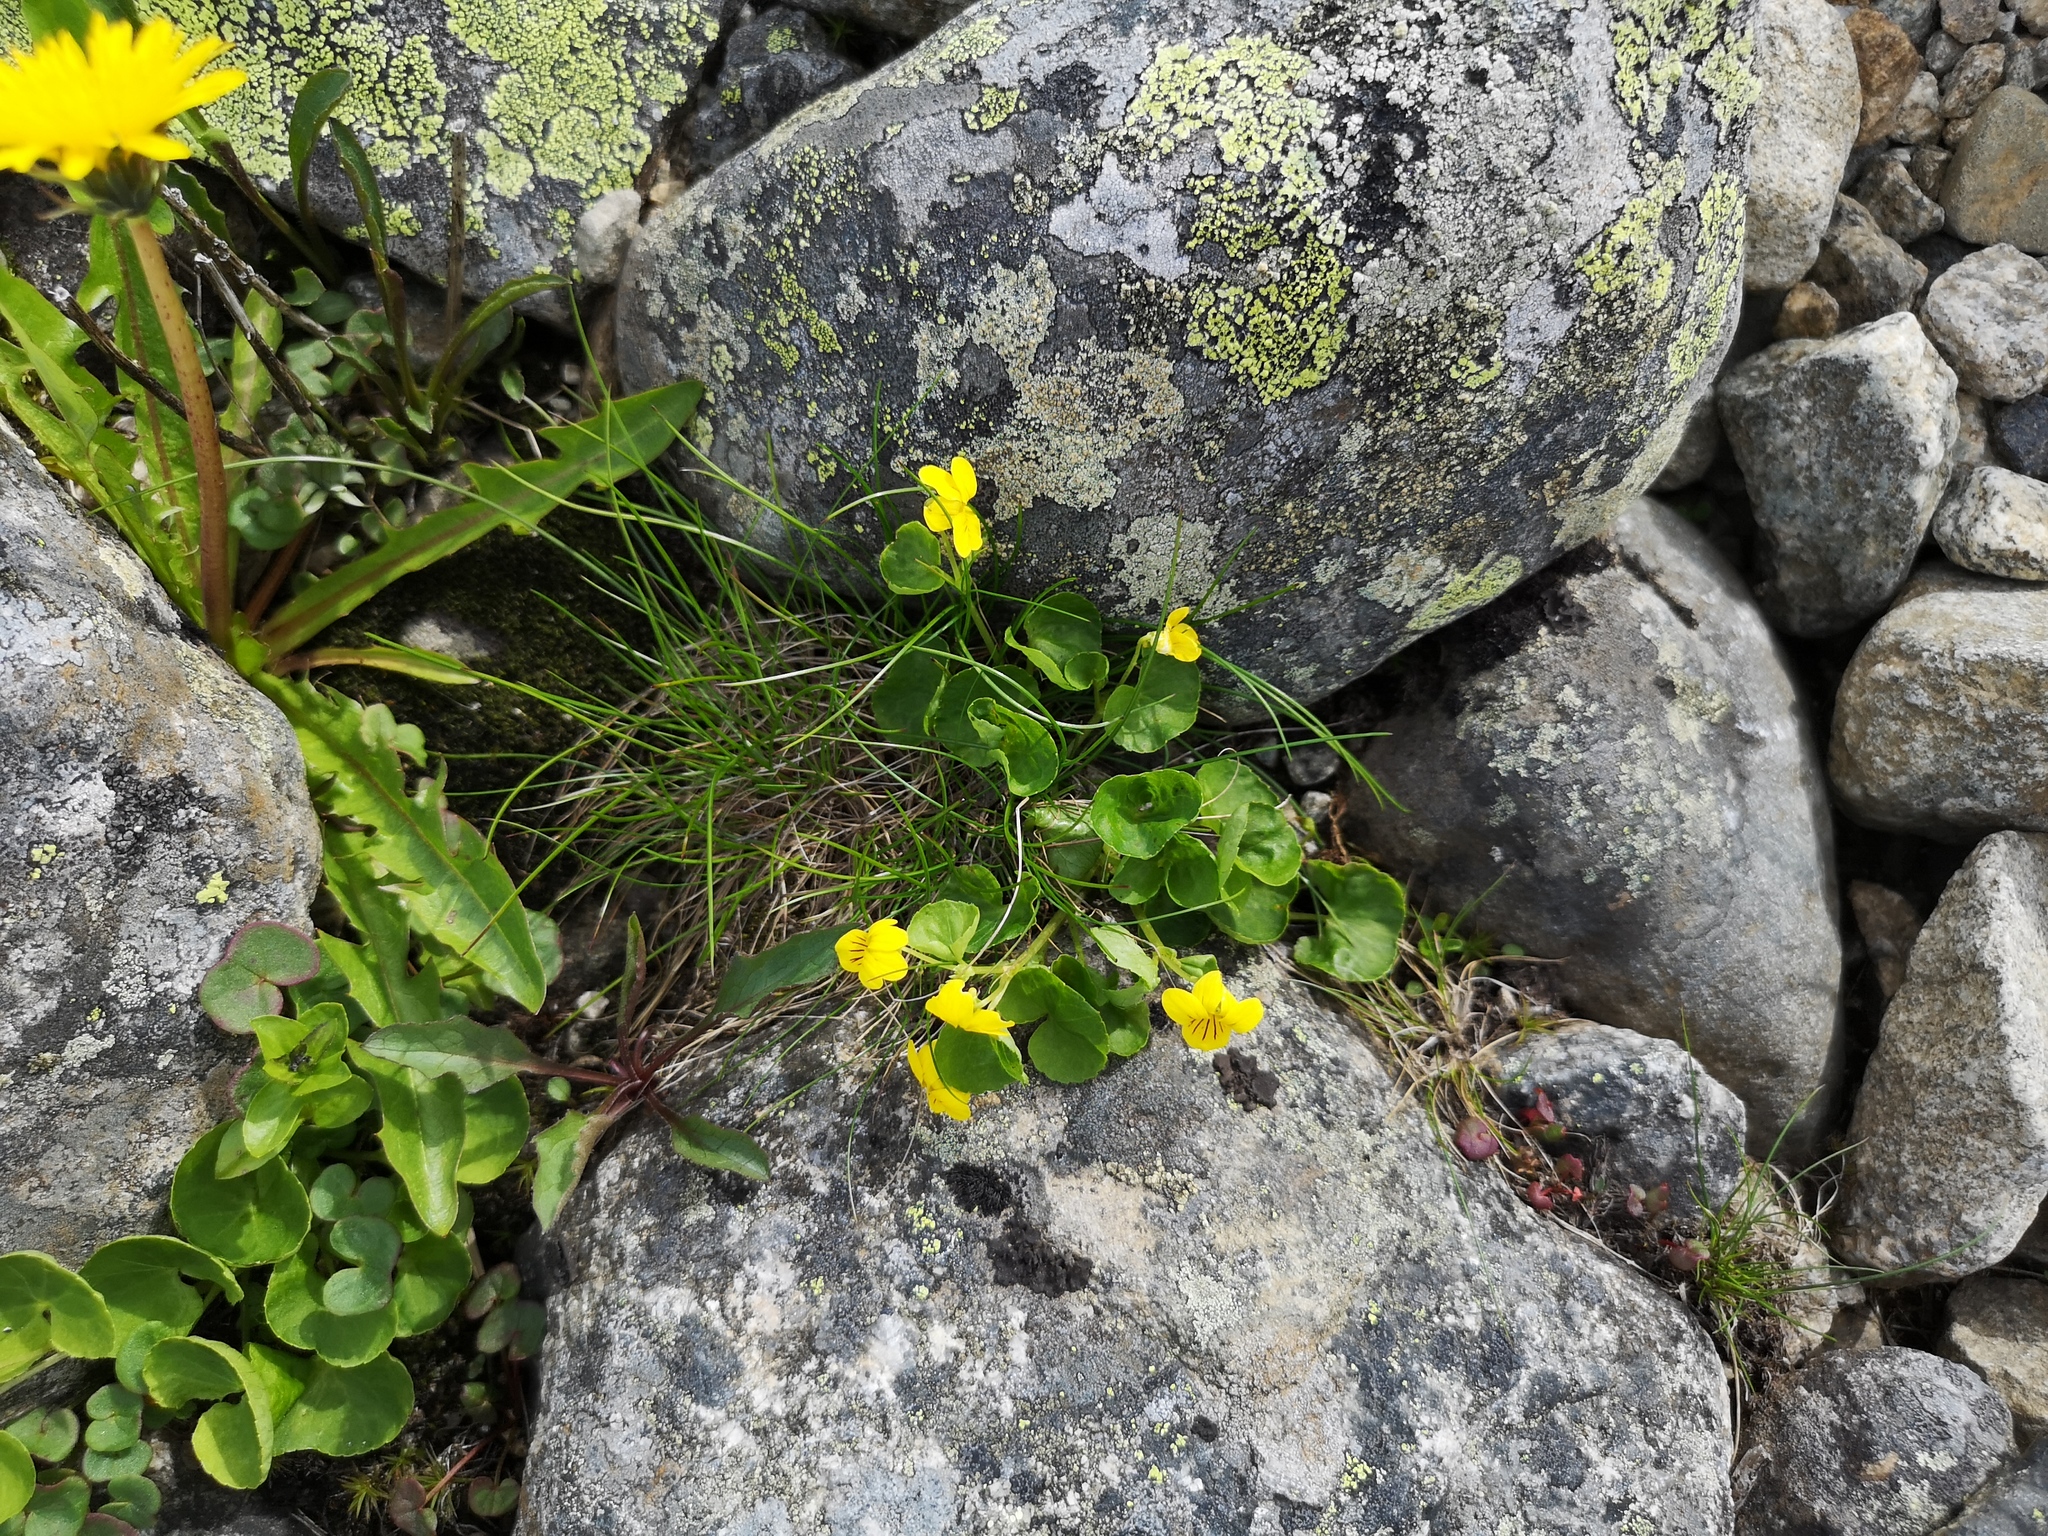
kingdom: Plantae
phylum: Tracheophyta
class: Magnoliopsida
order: Malpighiales
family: Violaceae
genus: Viola
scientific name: Viola biflora
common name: Alpine yellow violet
